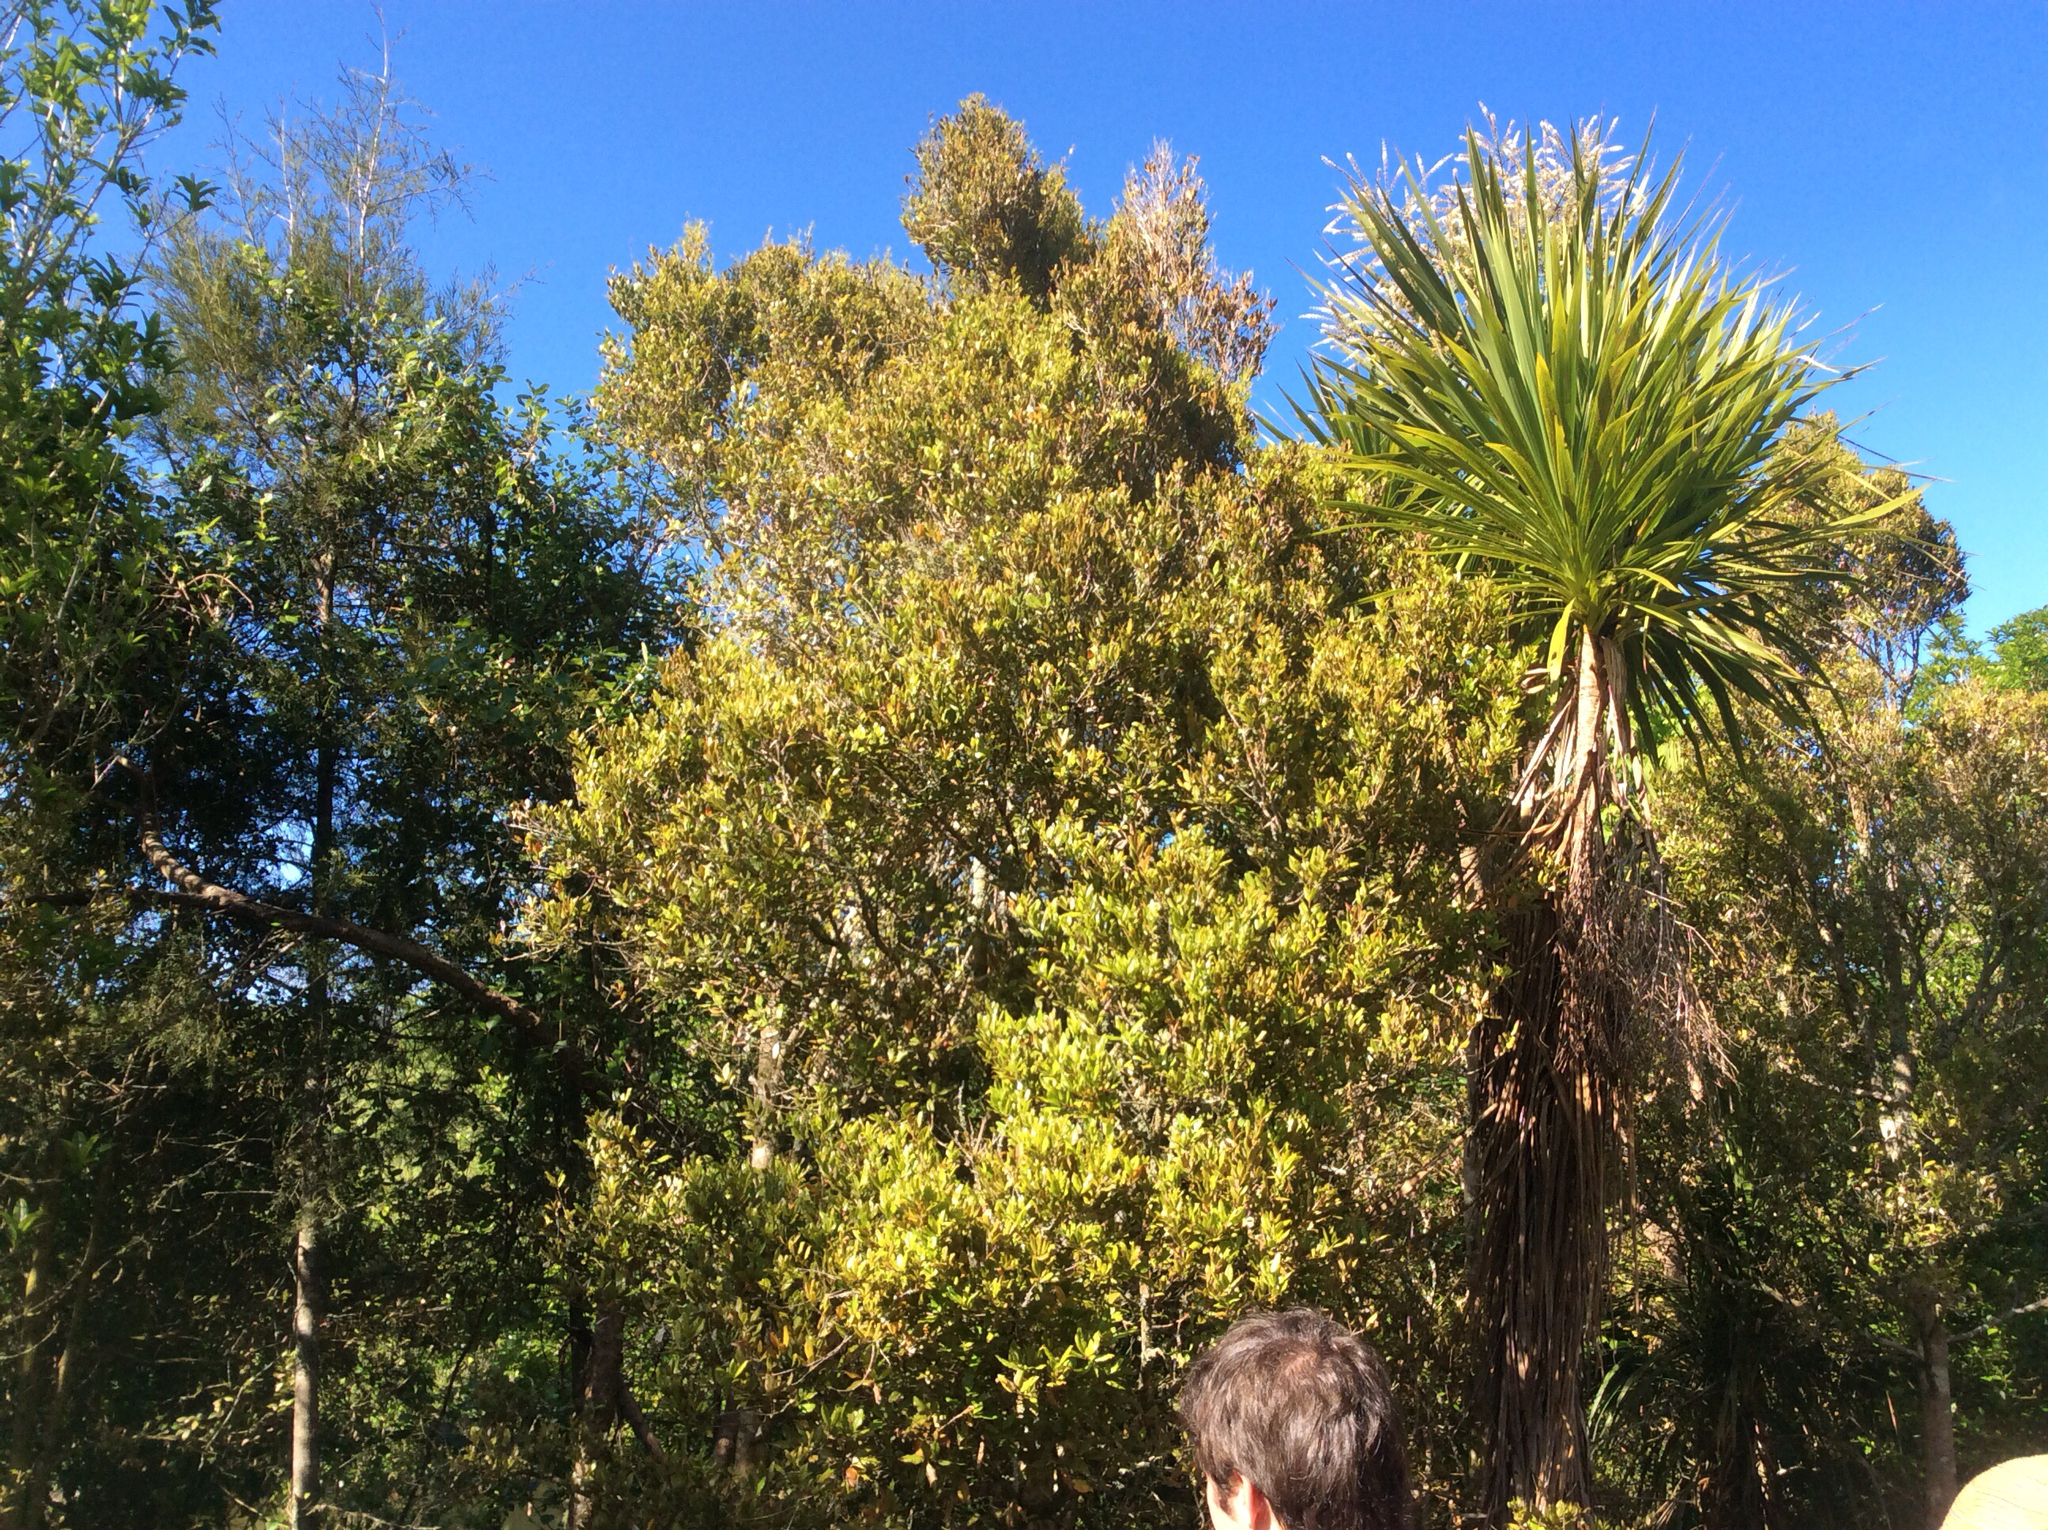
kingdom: Plantae
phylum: Tracheophyta
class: Magnoliopsida
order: Myrtales
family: Myrtaceae
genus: Syzygium
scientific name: Syzygium maire
